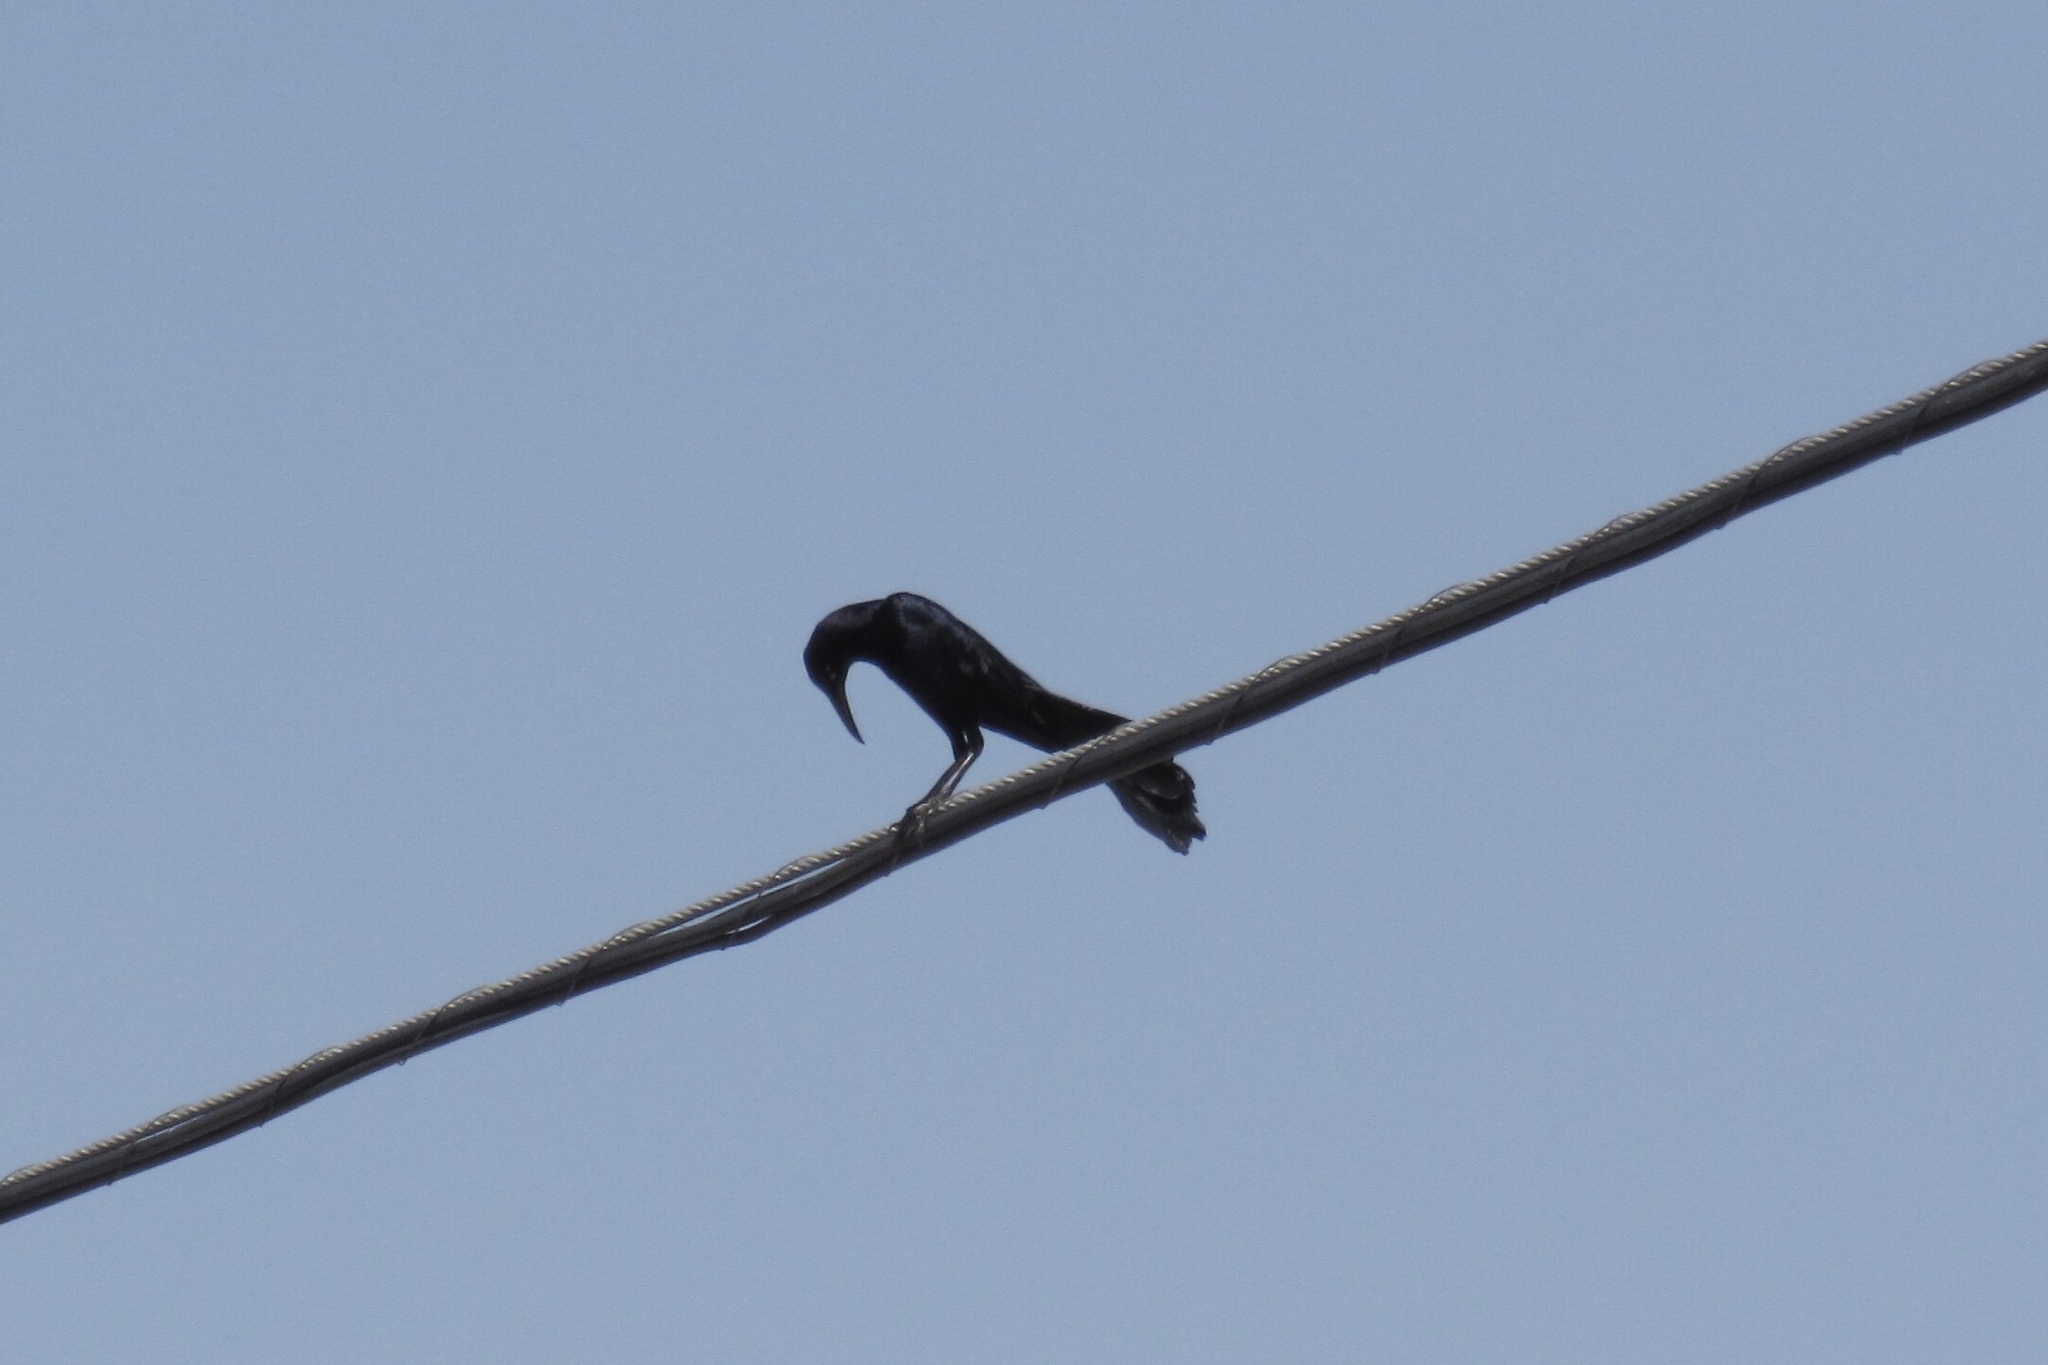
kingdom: Animalia
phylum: Chordata
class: Aves
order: Passeriformes
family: Icteridae
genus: Quiscalus
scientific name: Quiscalus mexicanus
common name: Great-tailed grackle
